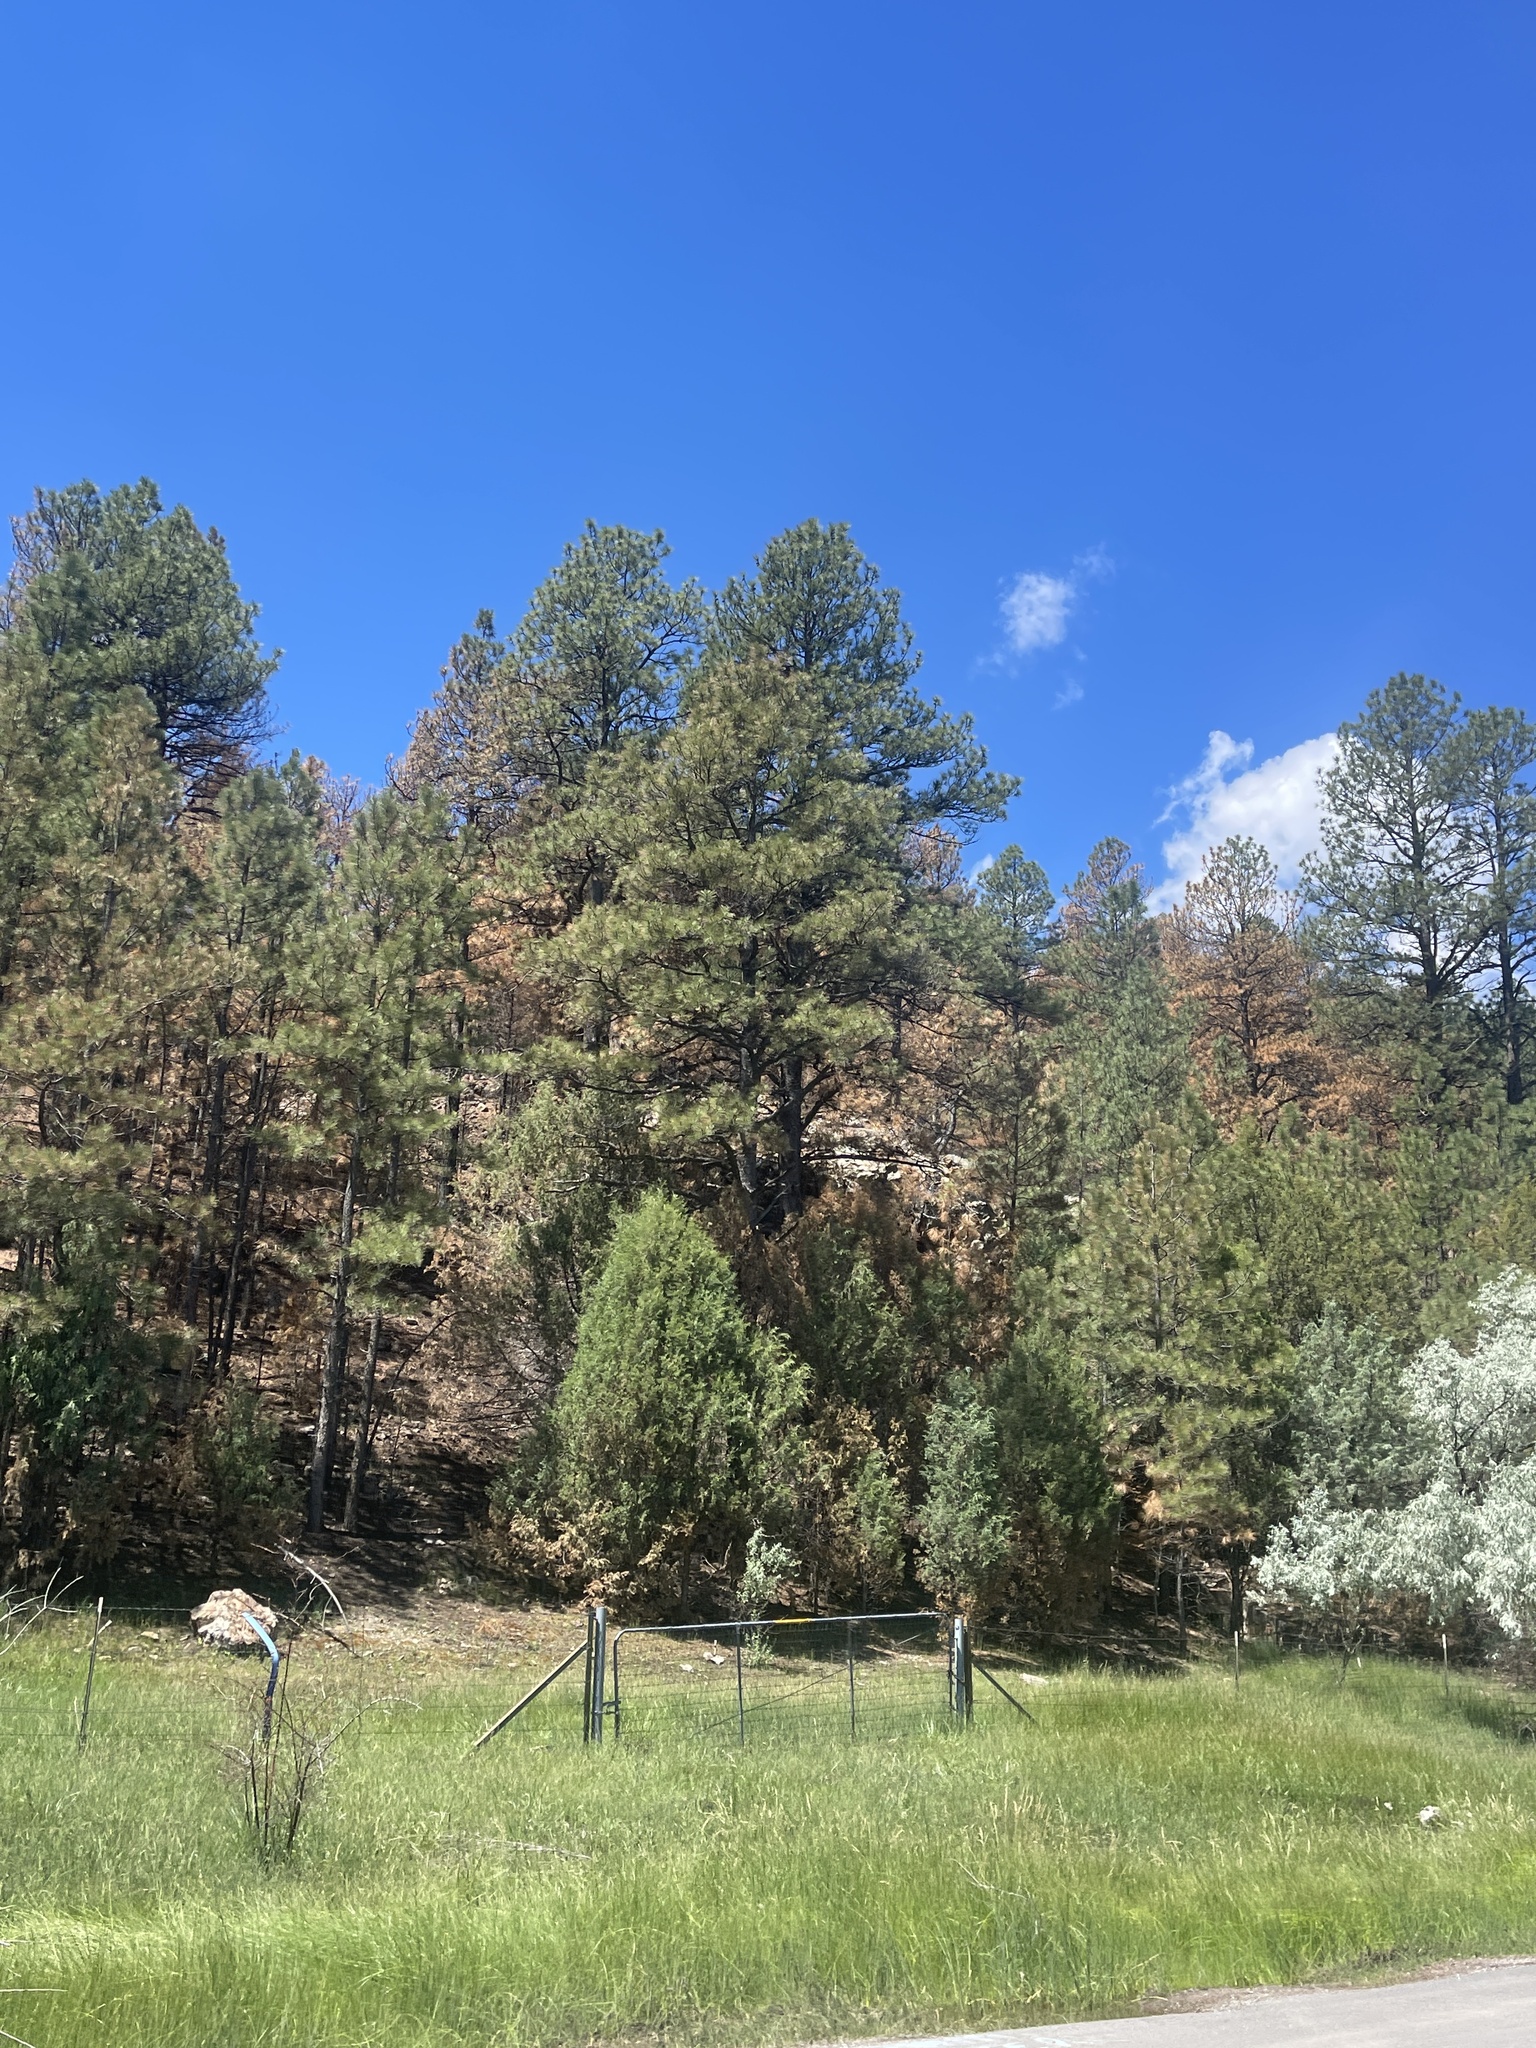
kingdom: Plantae
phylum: Tracheophyta
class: Pinopsida
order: Pinales
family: Pinaceae
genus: Pinus
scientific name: Pinus ponderosa
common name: Western yellow-pine
